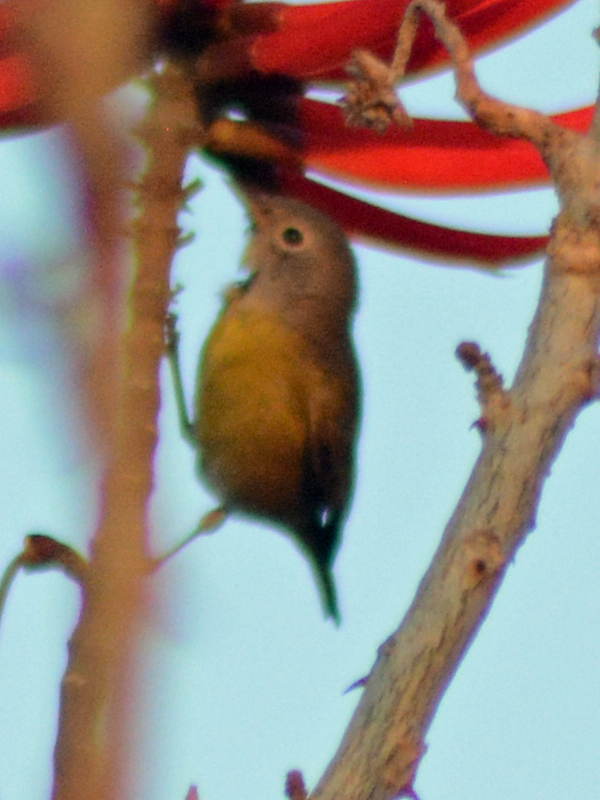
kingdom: Animalia
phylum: Chordata
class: Aves
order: Passeriformes
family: Parulidae
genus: Leiothlypis
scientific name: Leiothlypis ruficapilla
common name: Nashville warbler
